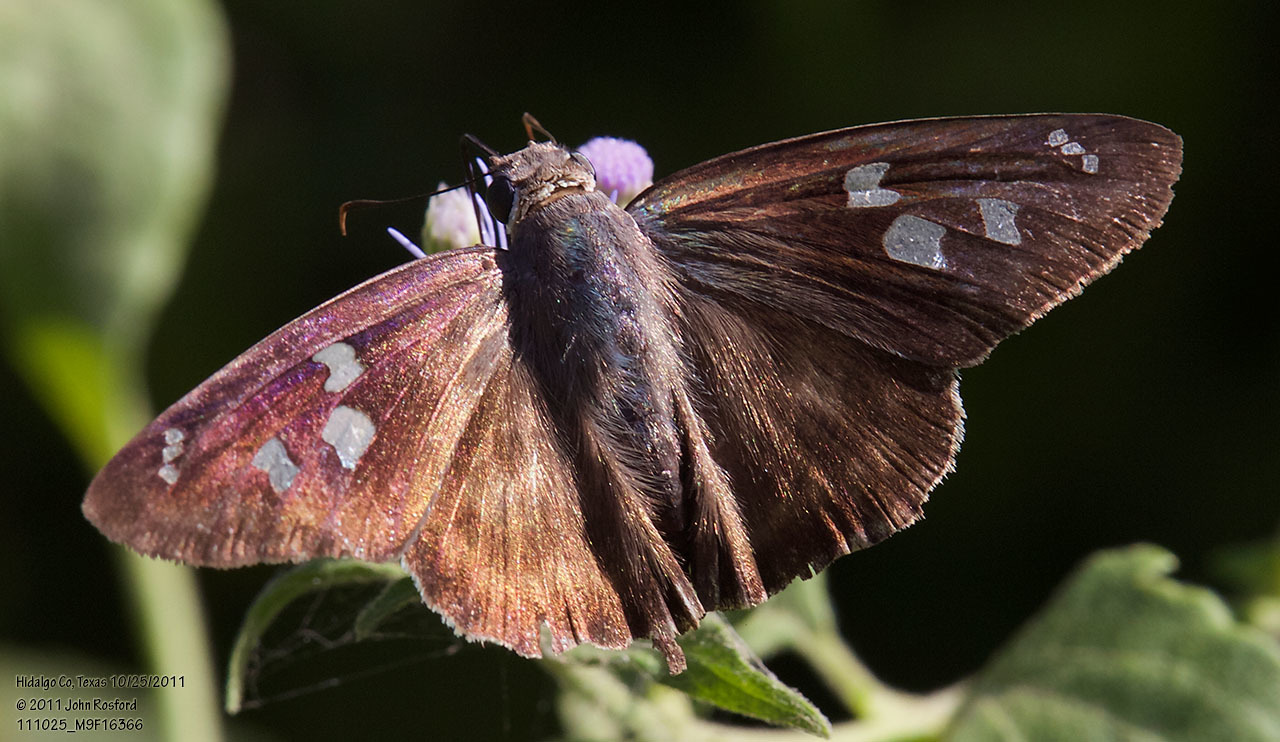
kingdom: Animalia
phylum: Arthropoda
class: Insecta
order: Lepidoptera
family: Hesperiidae
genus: Polygonus
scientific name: Polygonus leo
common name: Hammoch skipper
